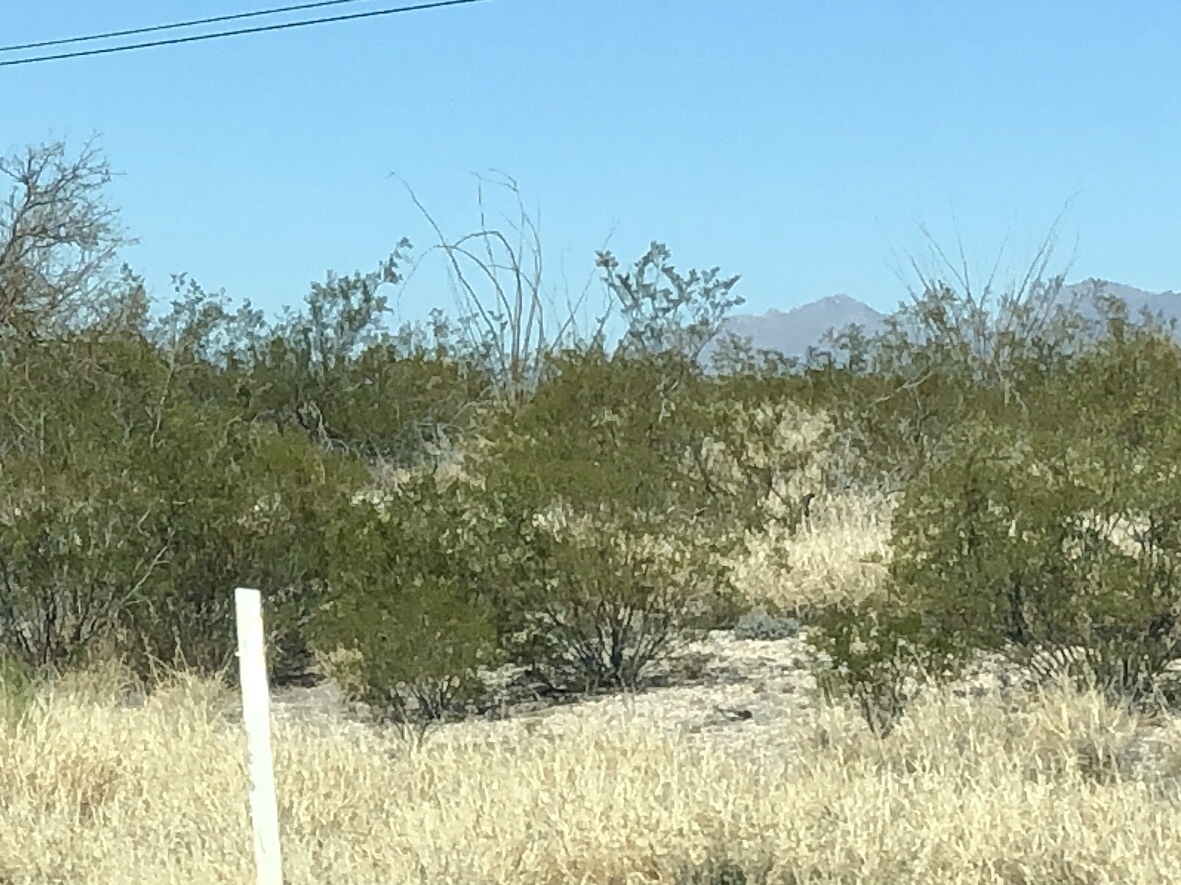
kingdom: Plantae
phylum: Tracheophyta
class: Magnoliopsida
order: Zygophyllales
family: Zygophyllaceae
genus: Larrea
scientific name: Larrea tridentata
